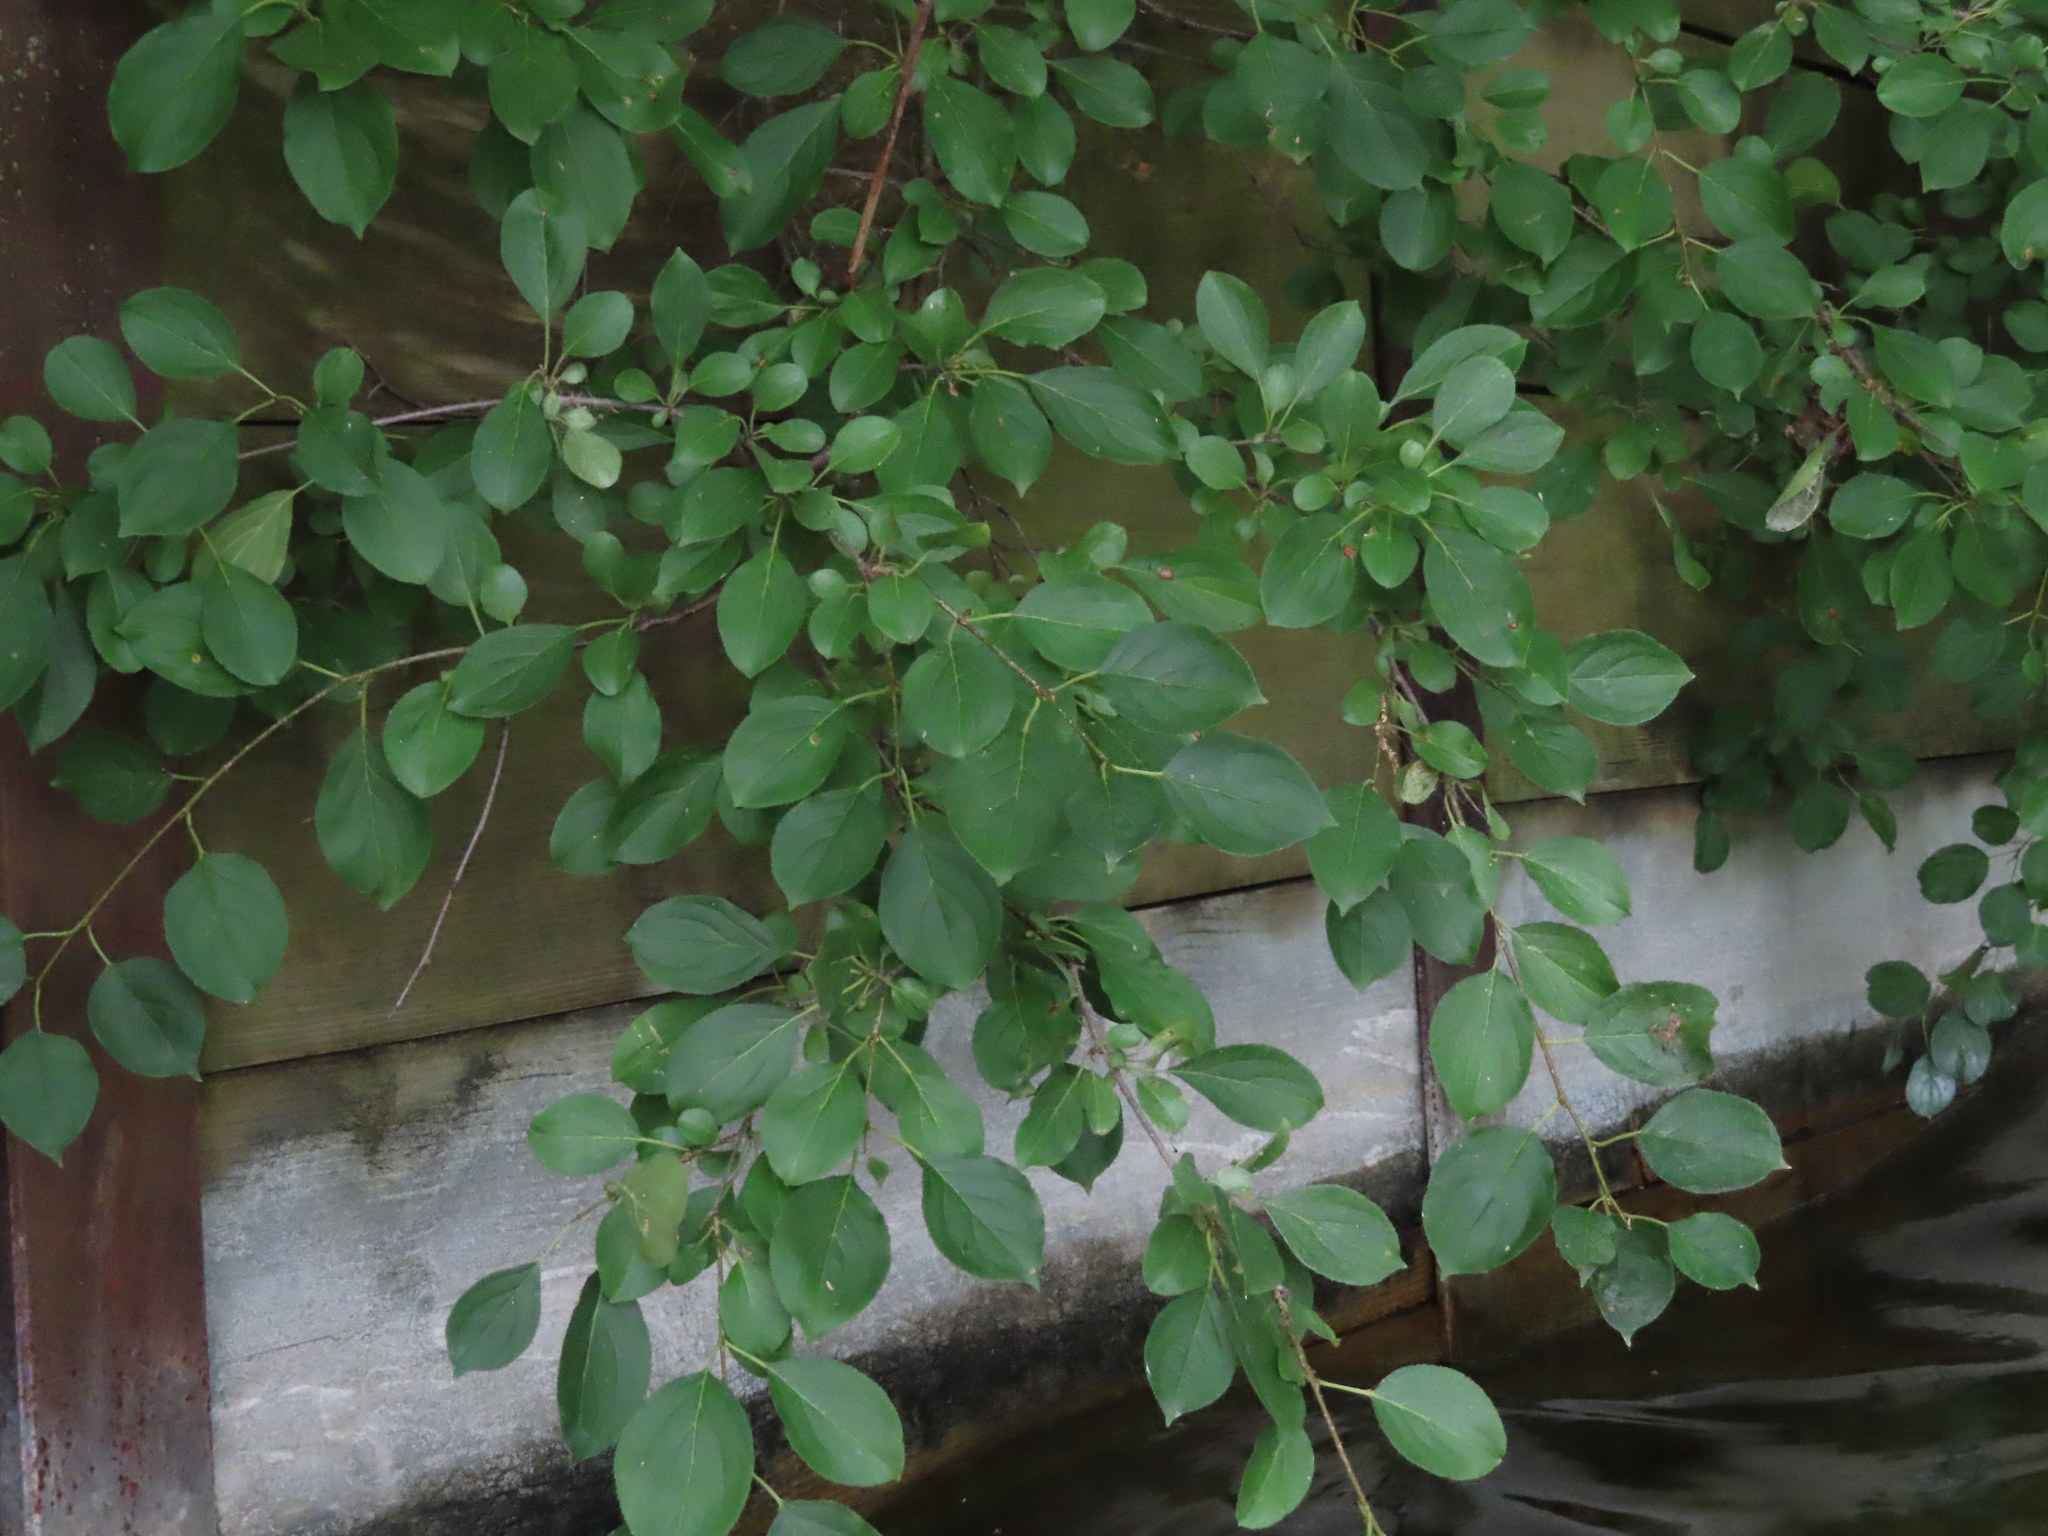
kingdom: Plantae
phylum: Tracheophyta
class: Magnoliopsida
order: Rosales
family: Rhamnaceae
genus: Rhamnus
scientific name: Rhamnus cathartica
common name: Common buckthorn
